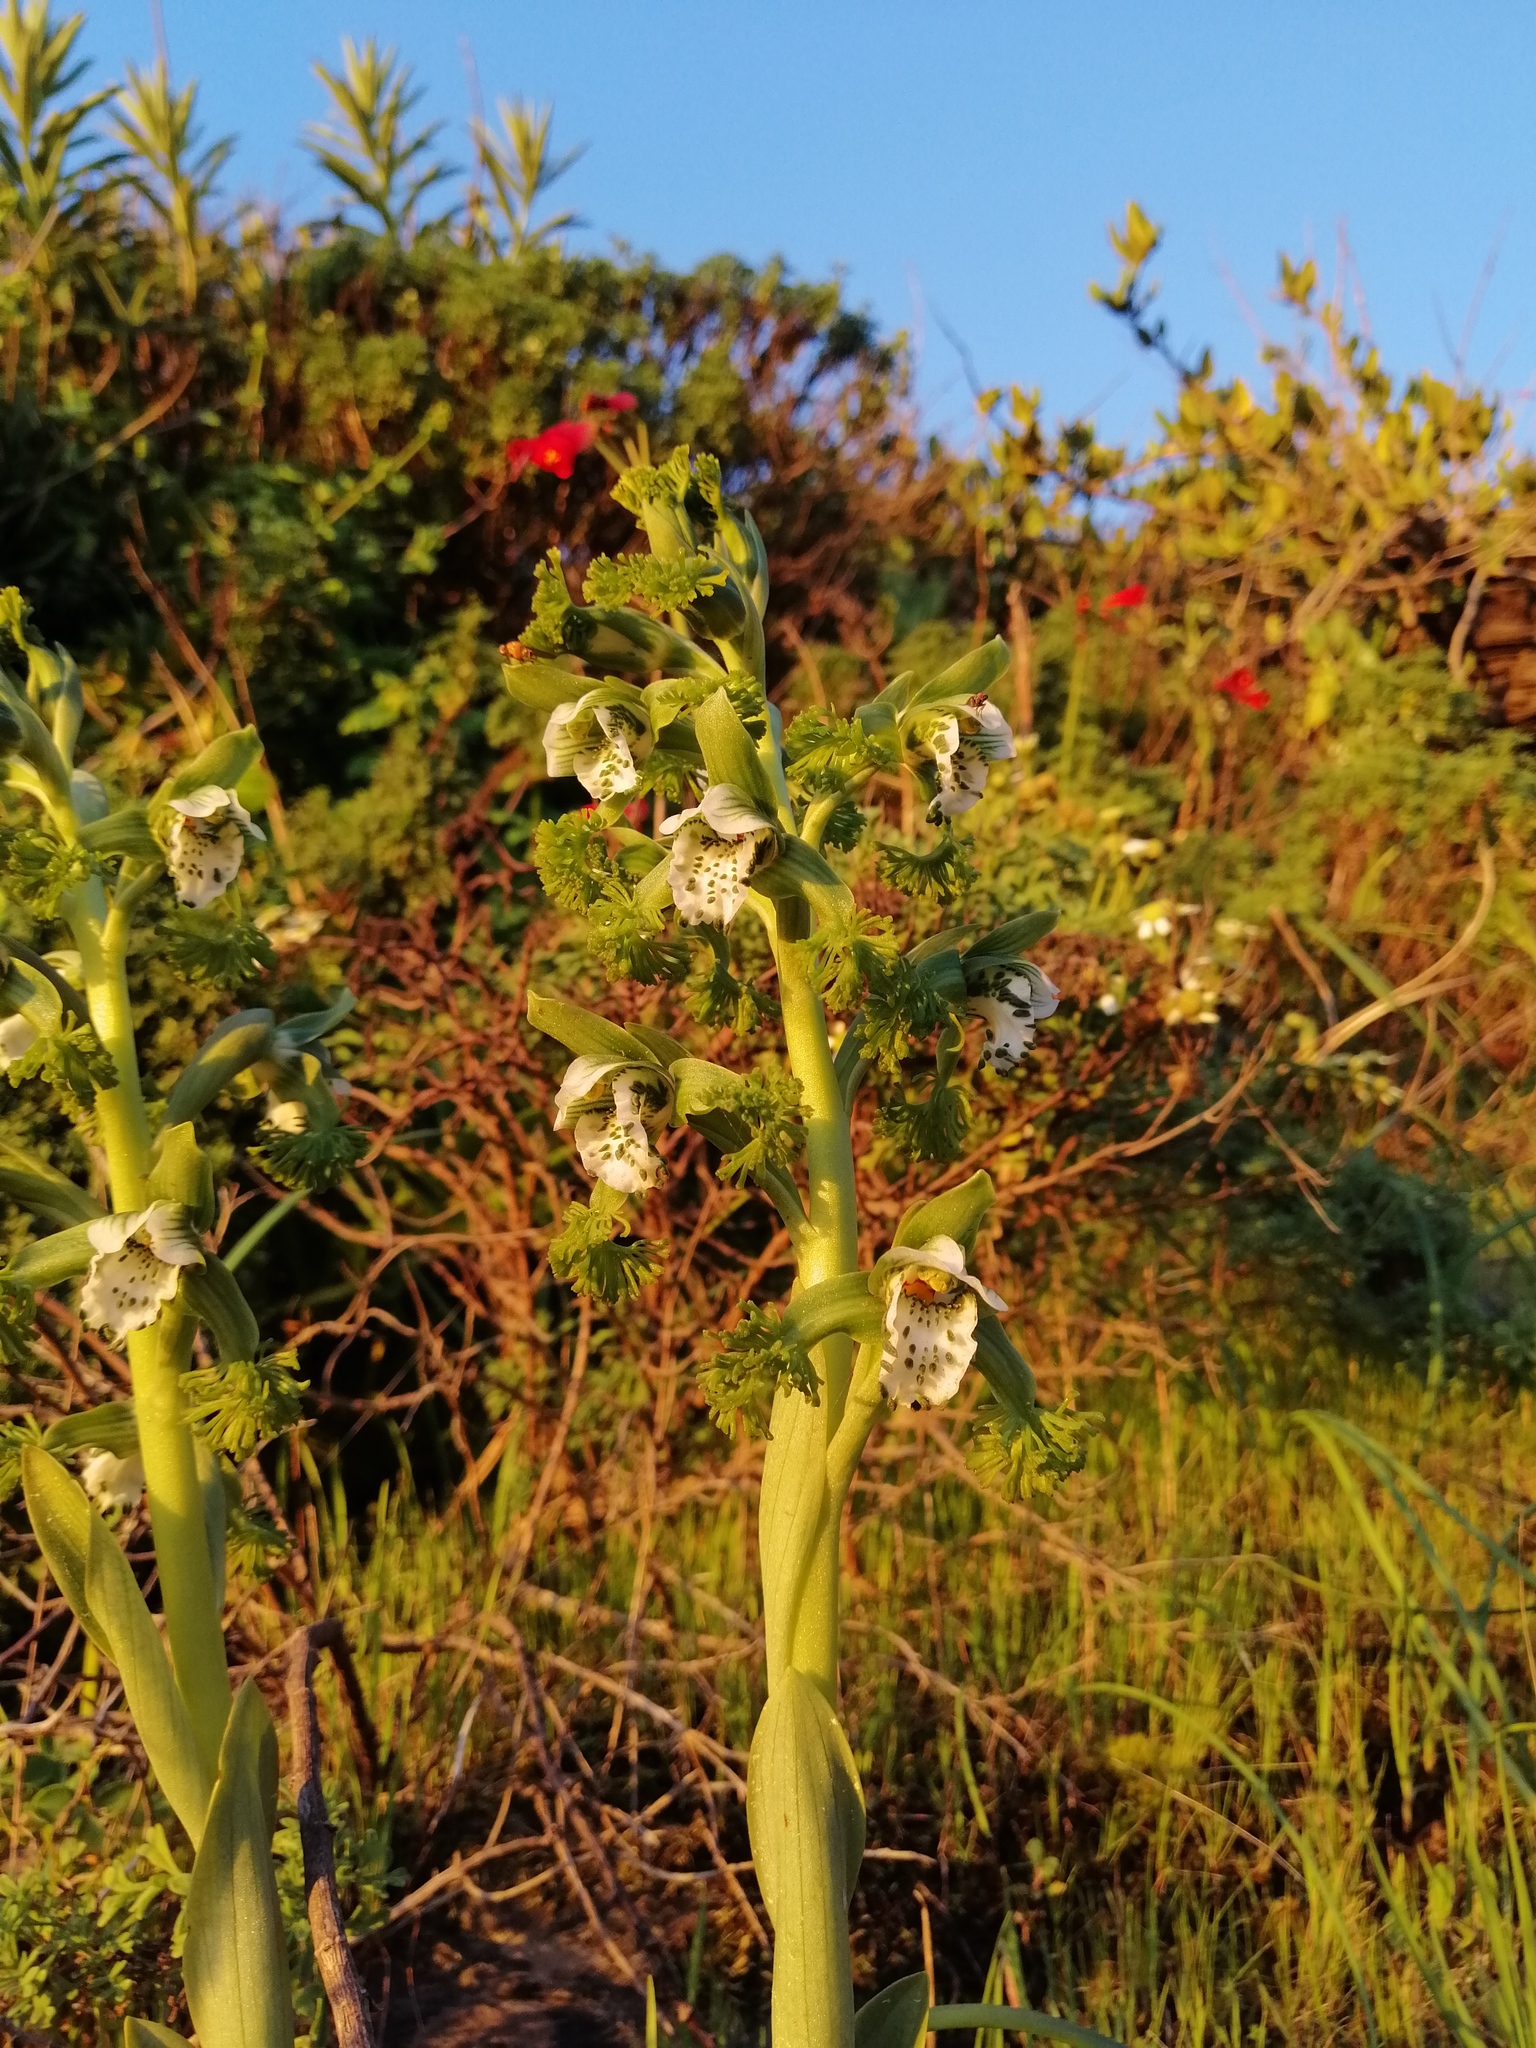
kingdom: Plantae
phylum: Tracheophyta
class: Liliopsida
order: Asparagales
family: Orchidaceae
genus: Bipinnula
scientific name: Bipinnula fimbriata
